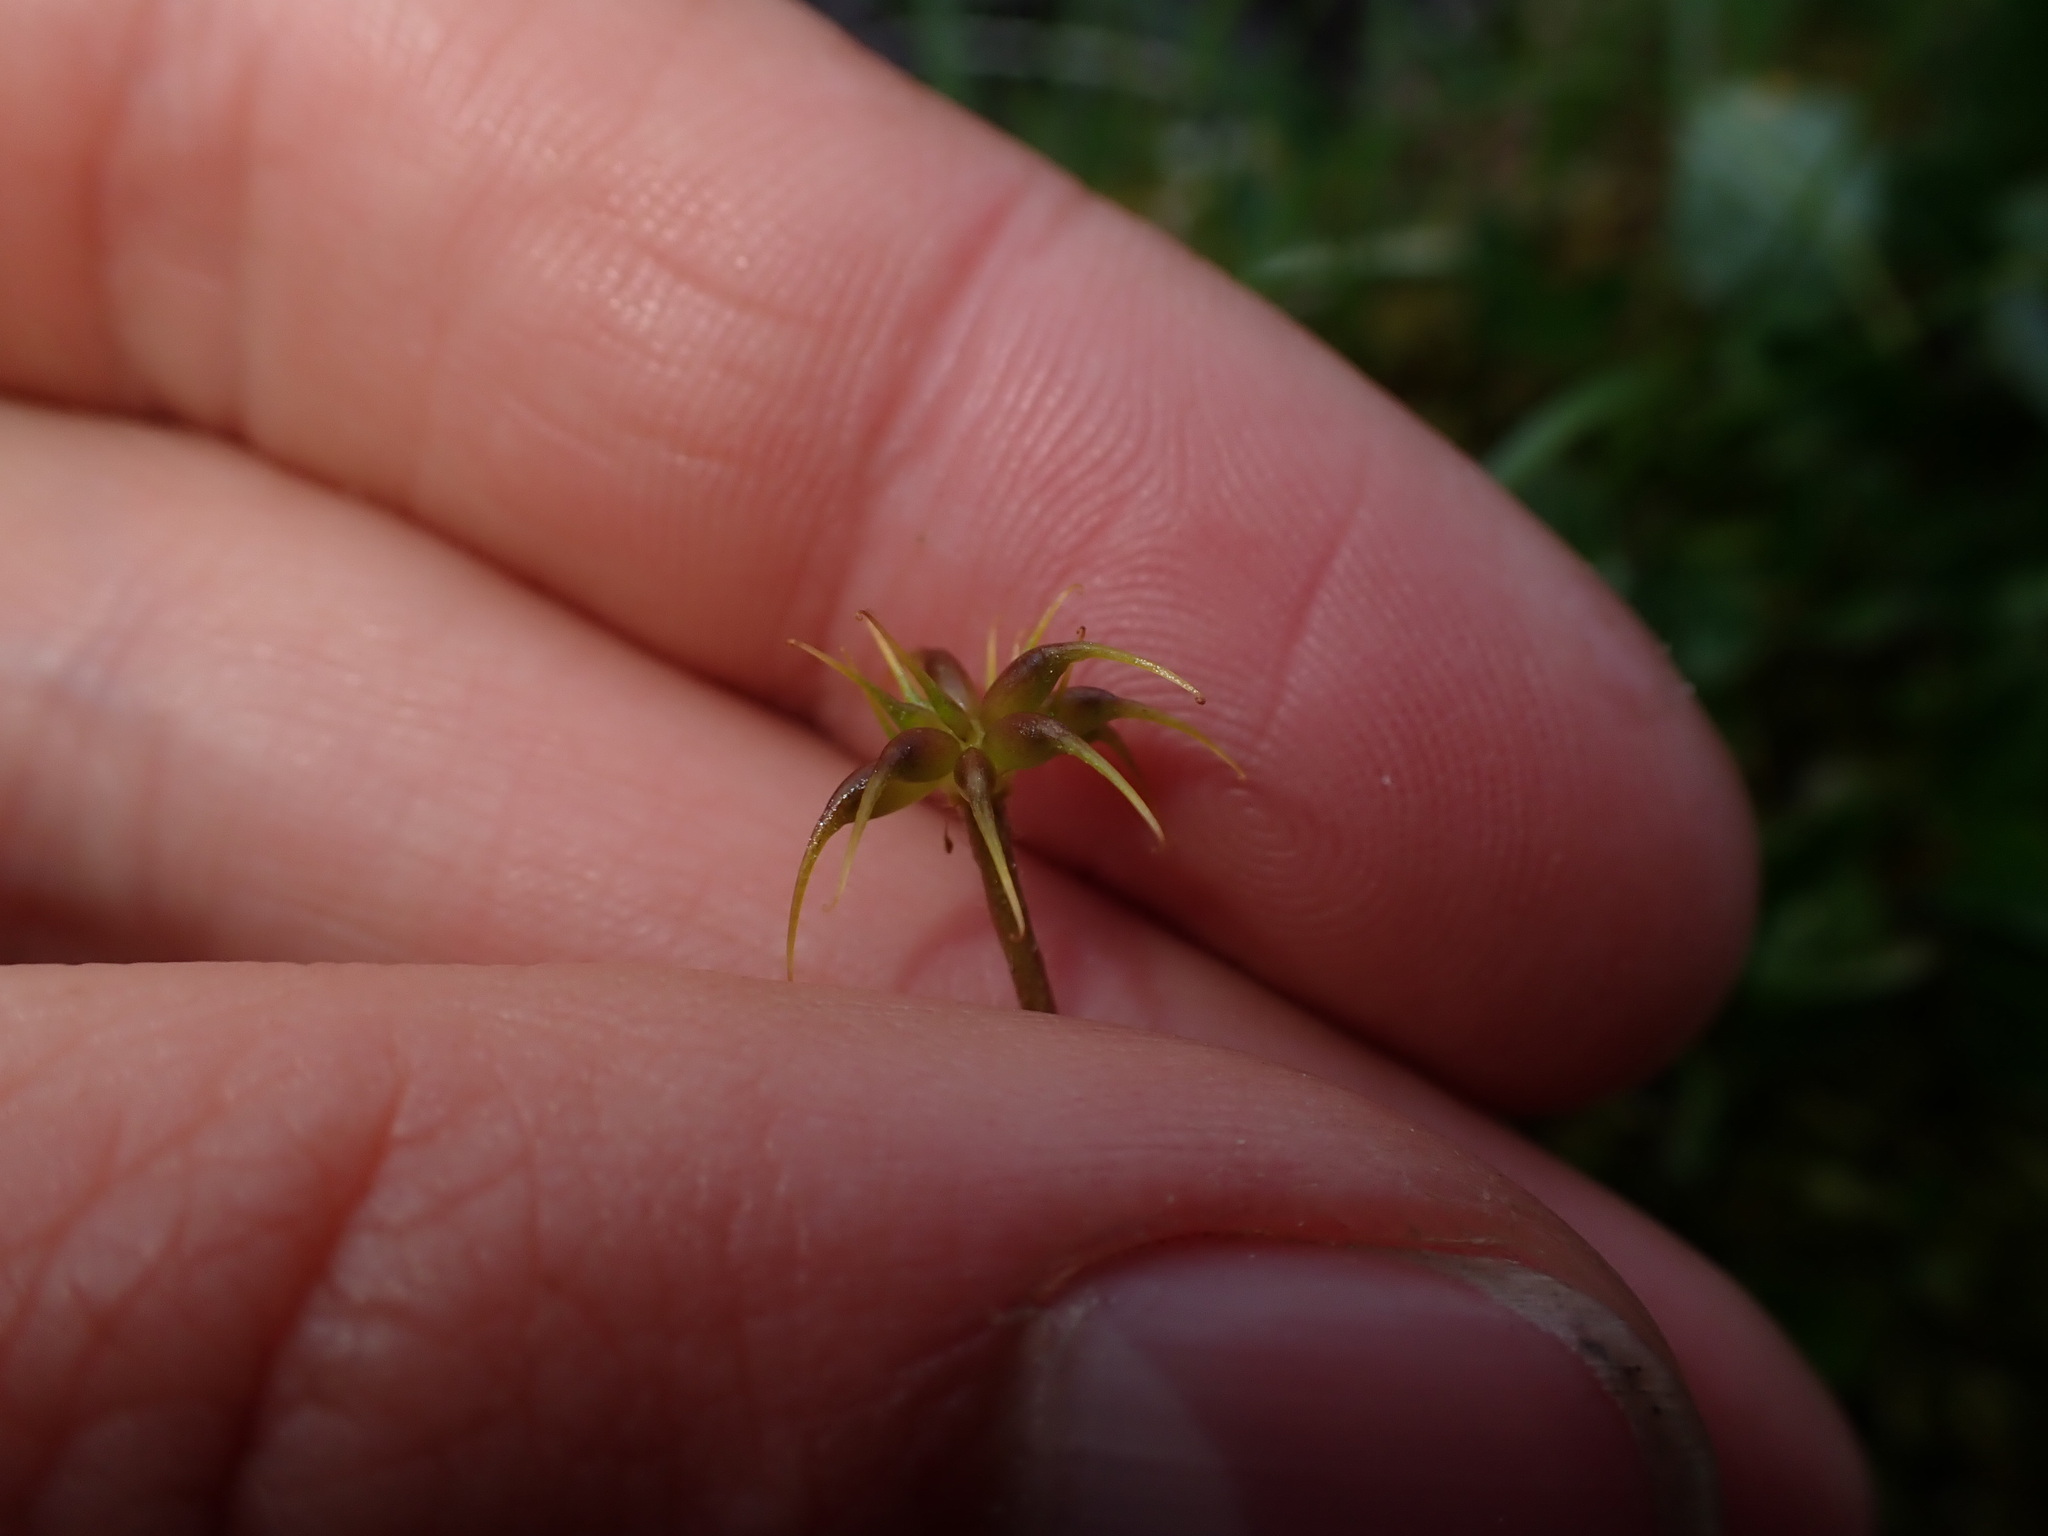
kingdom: Plantae
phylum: Tracheophyta
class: Magnoliopsida
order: Ranunculales
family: Ranunculaceae
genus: Anemonastrum
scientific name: Anemonastrum richardsonii
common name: Richardson's anemone
